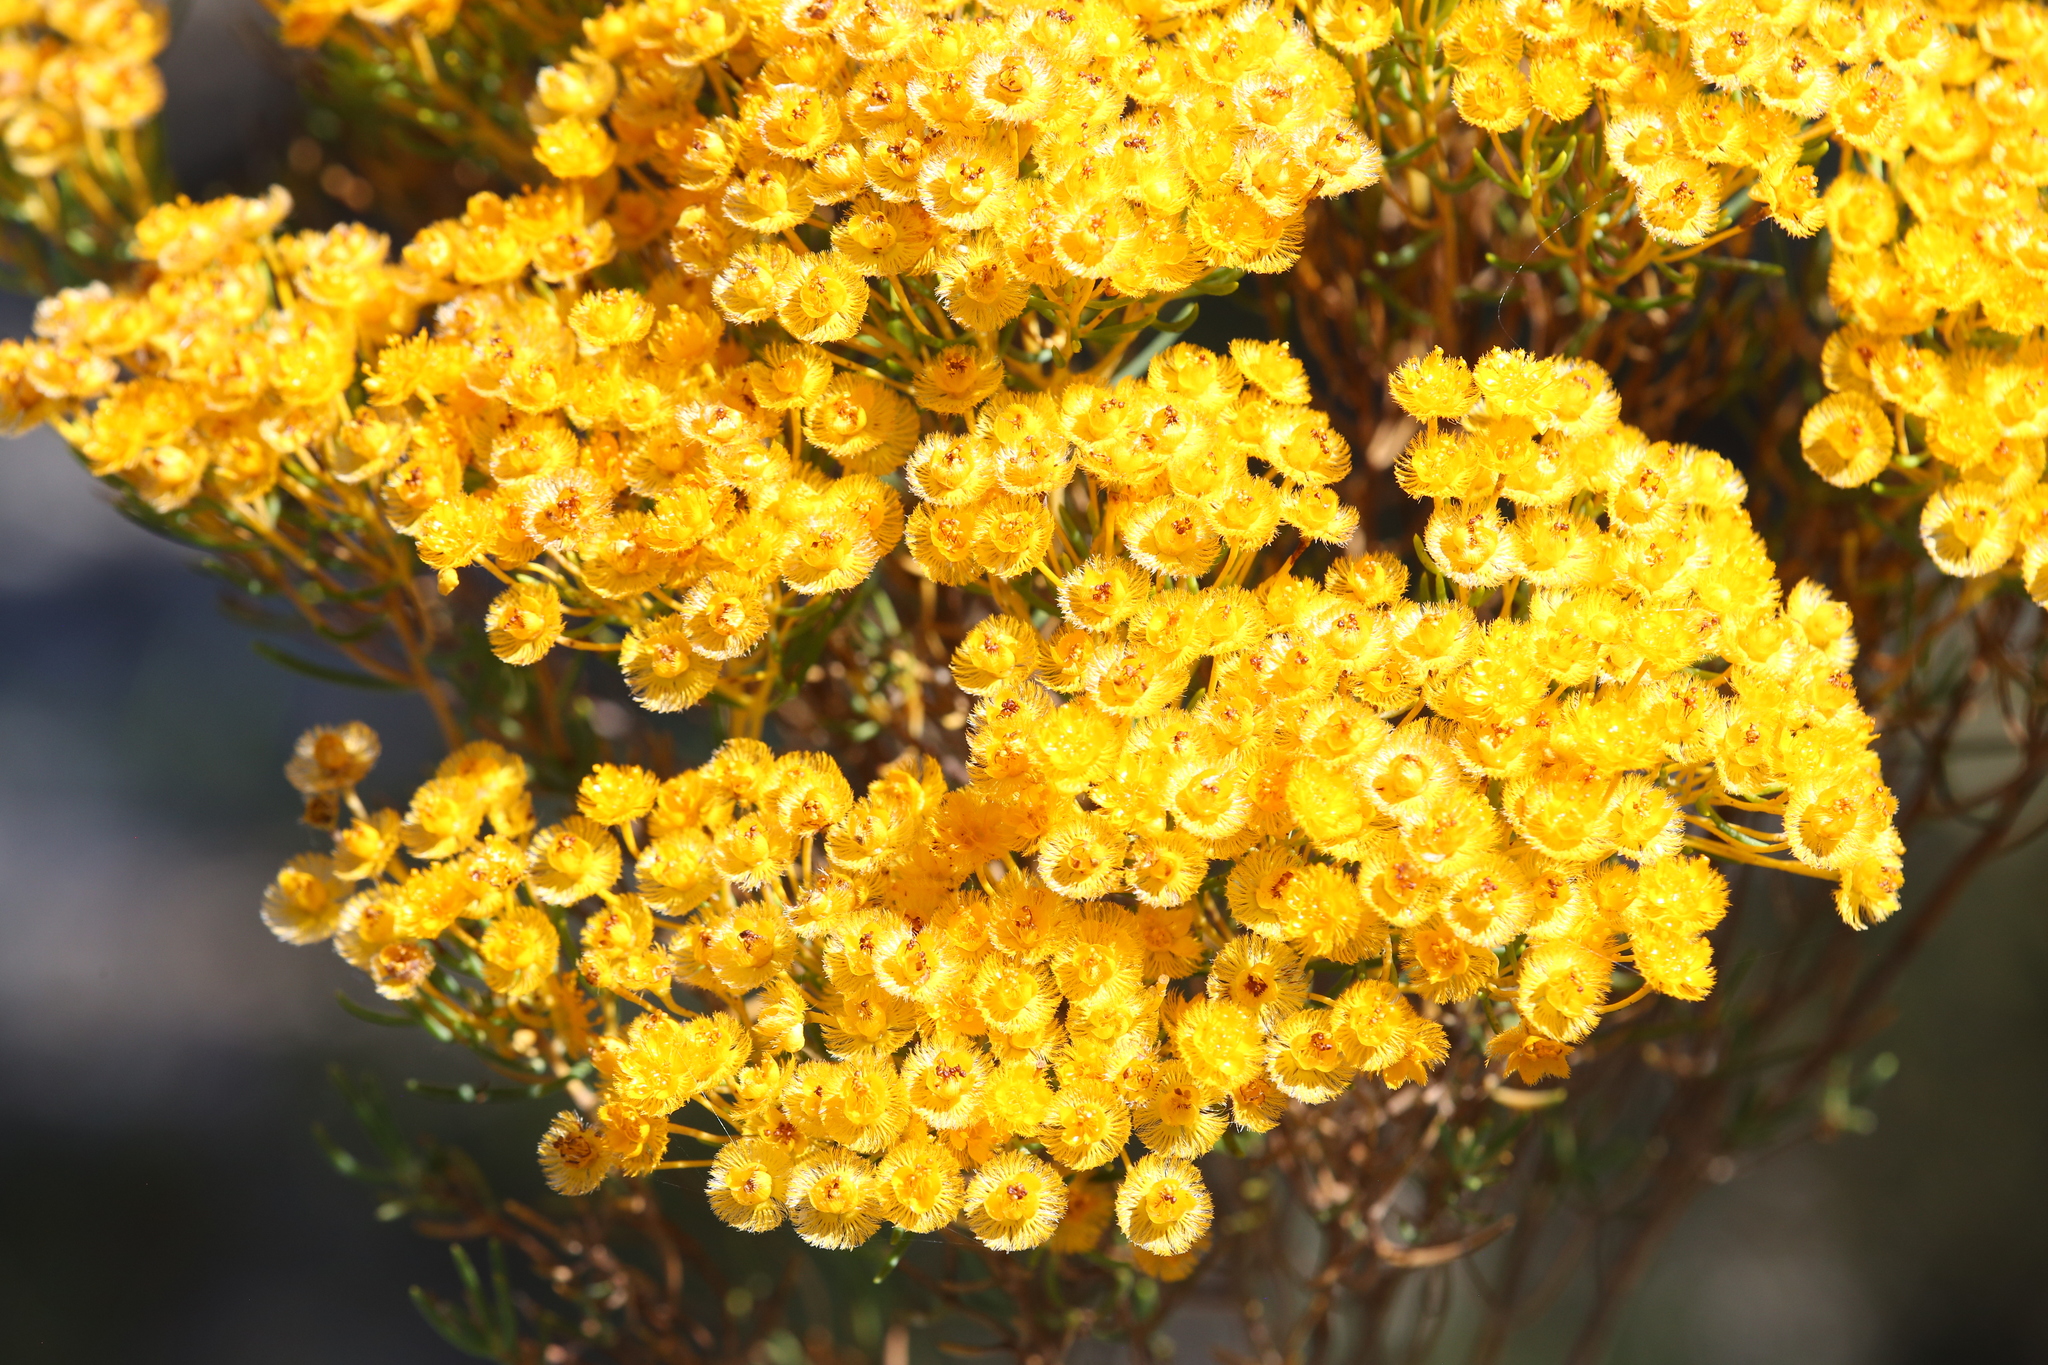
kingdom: Plantae
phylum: Tracheophyta
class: Magnoliopsida
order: Myrtales
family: Myrtaceae
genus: Verticordia
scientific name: Verticordia nitens
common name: Christmas morrison
